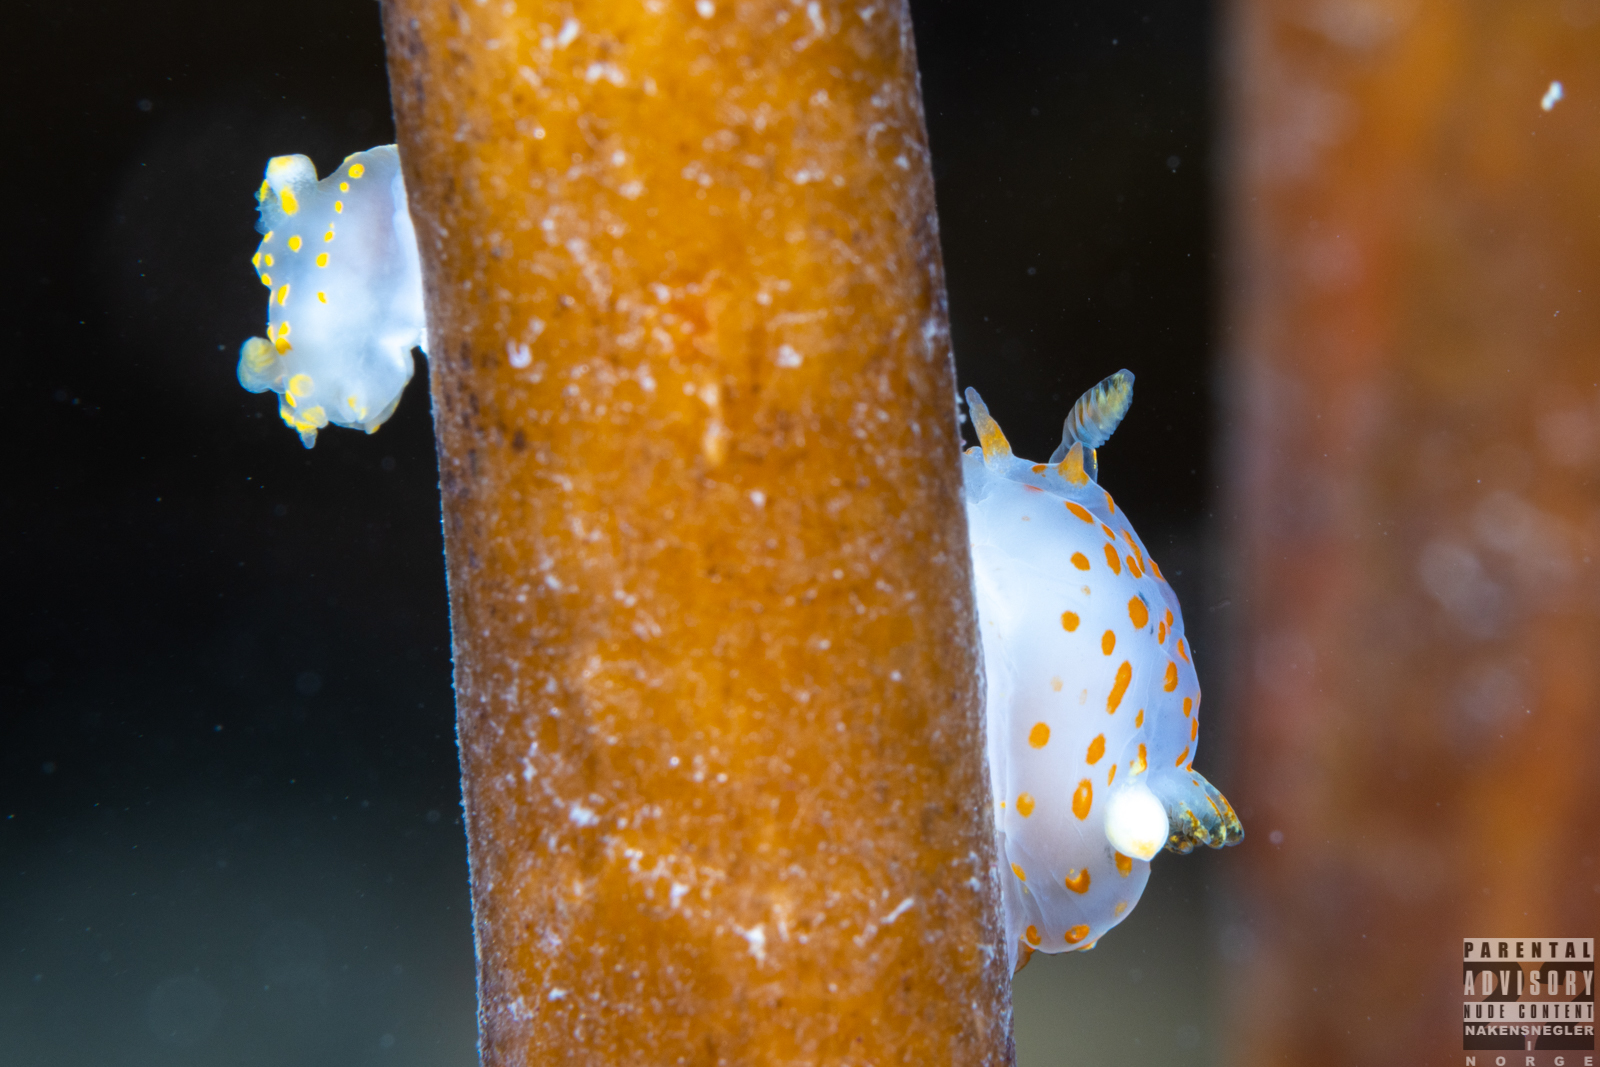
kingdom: Animalia
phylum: Mollusca
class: Gastropoda
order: Nudibranchia
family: Polyceridae
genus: Polycera
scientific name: Polycera quadrilineata
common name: Four-striped polycera
